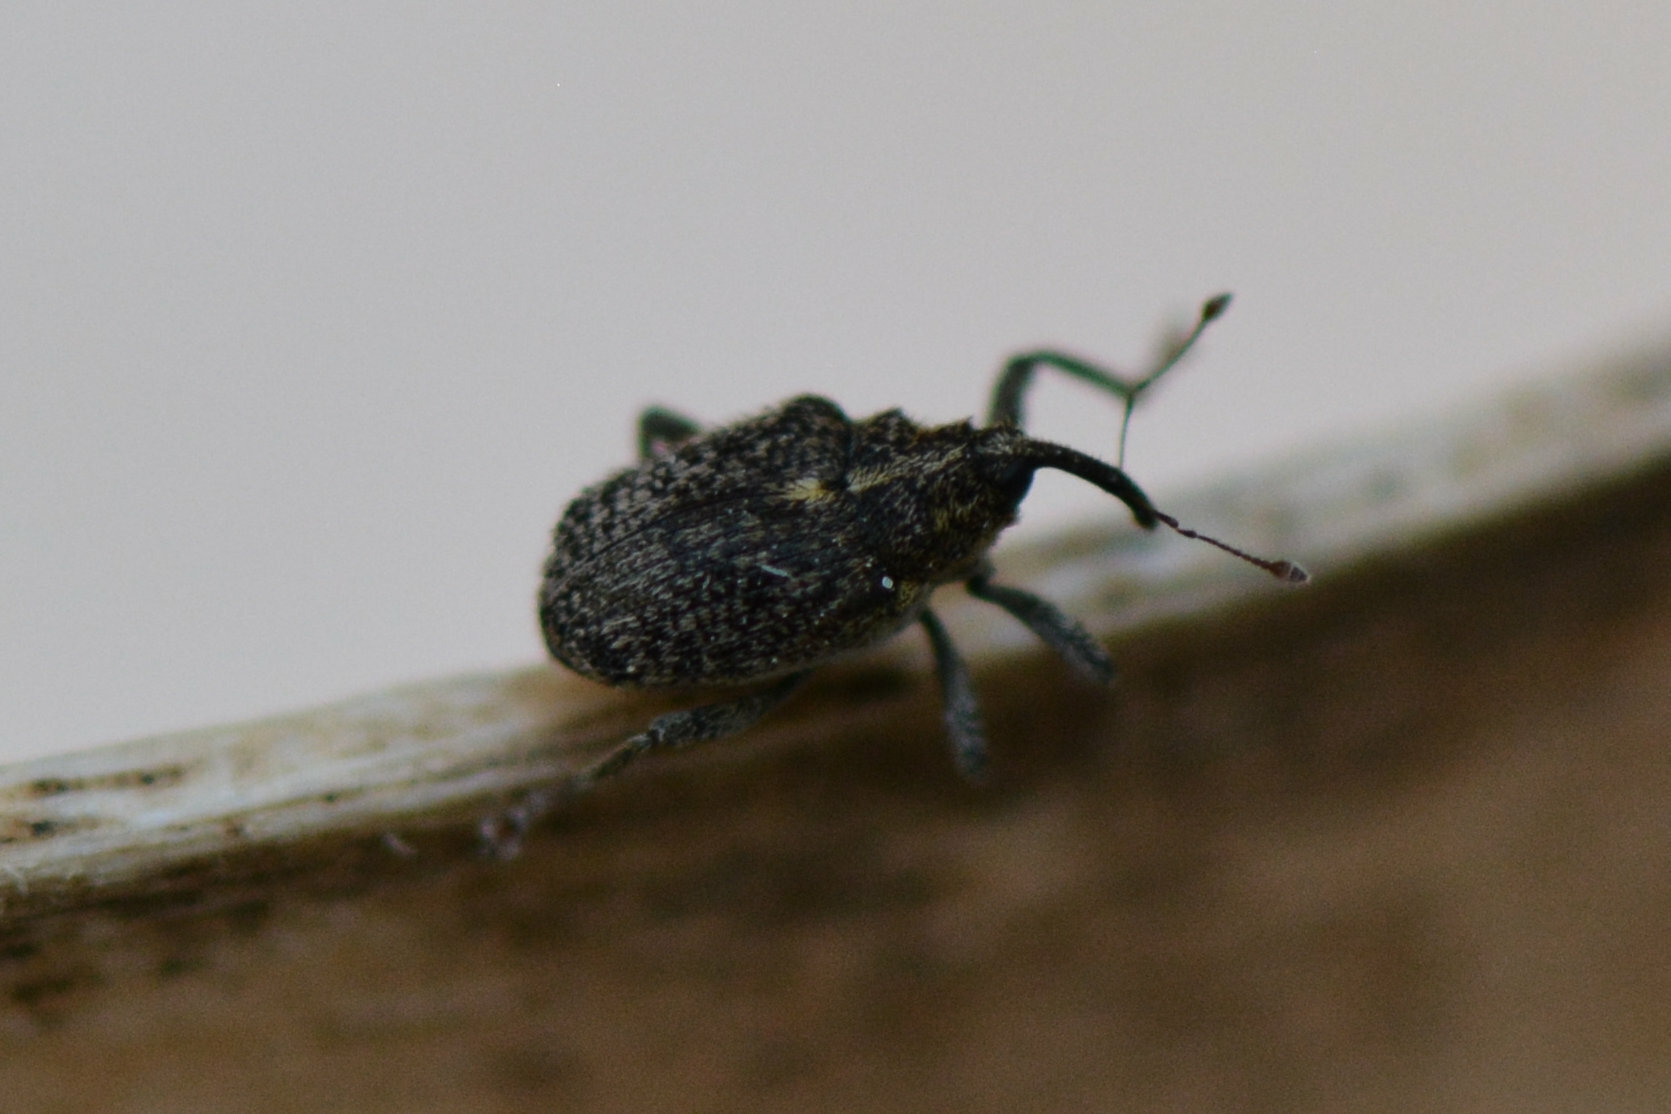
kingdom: Animalia
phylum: Arthropoda
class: Insecta
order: Coleoptera
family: Curculionidae
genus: Ceutorhynchus
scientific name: Ceutorhynchus pallidactylus
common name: Cabbage stem weavil
